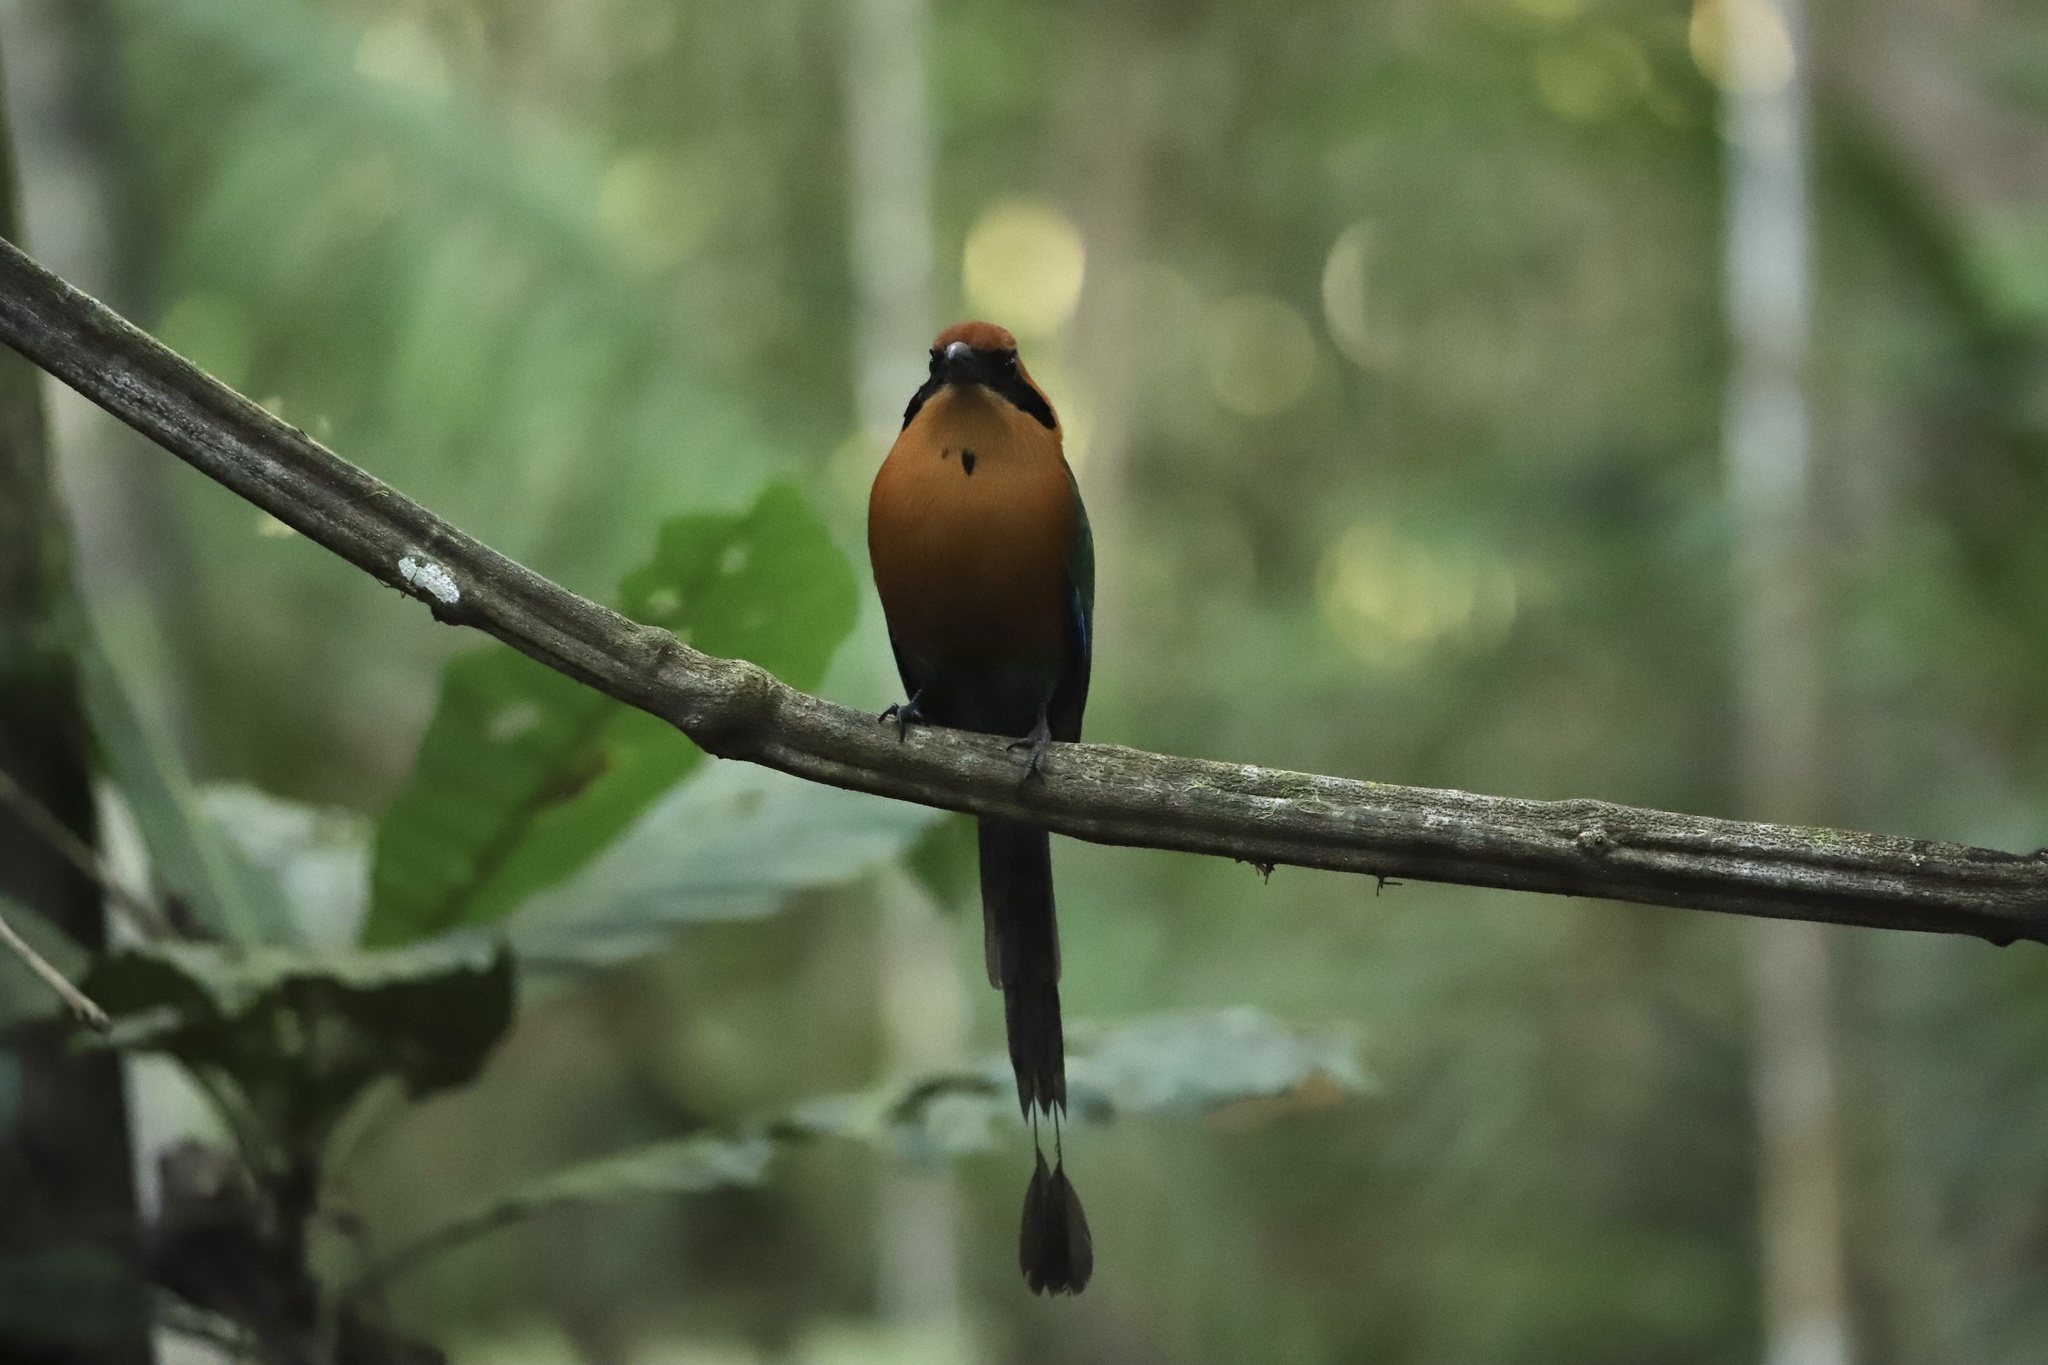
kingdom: Animalia
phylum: Chordata
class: Aves
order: Coraciiformes
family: Momotidae
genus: Baryphthengus
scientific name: Baryphthengus martii
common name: Rufous motmot
